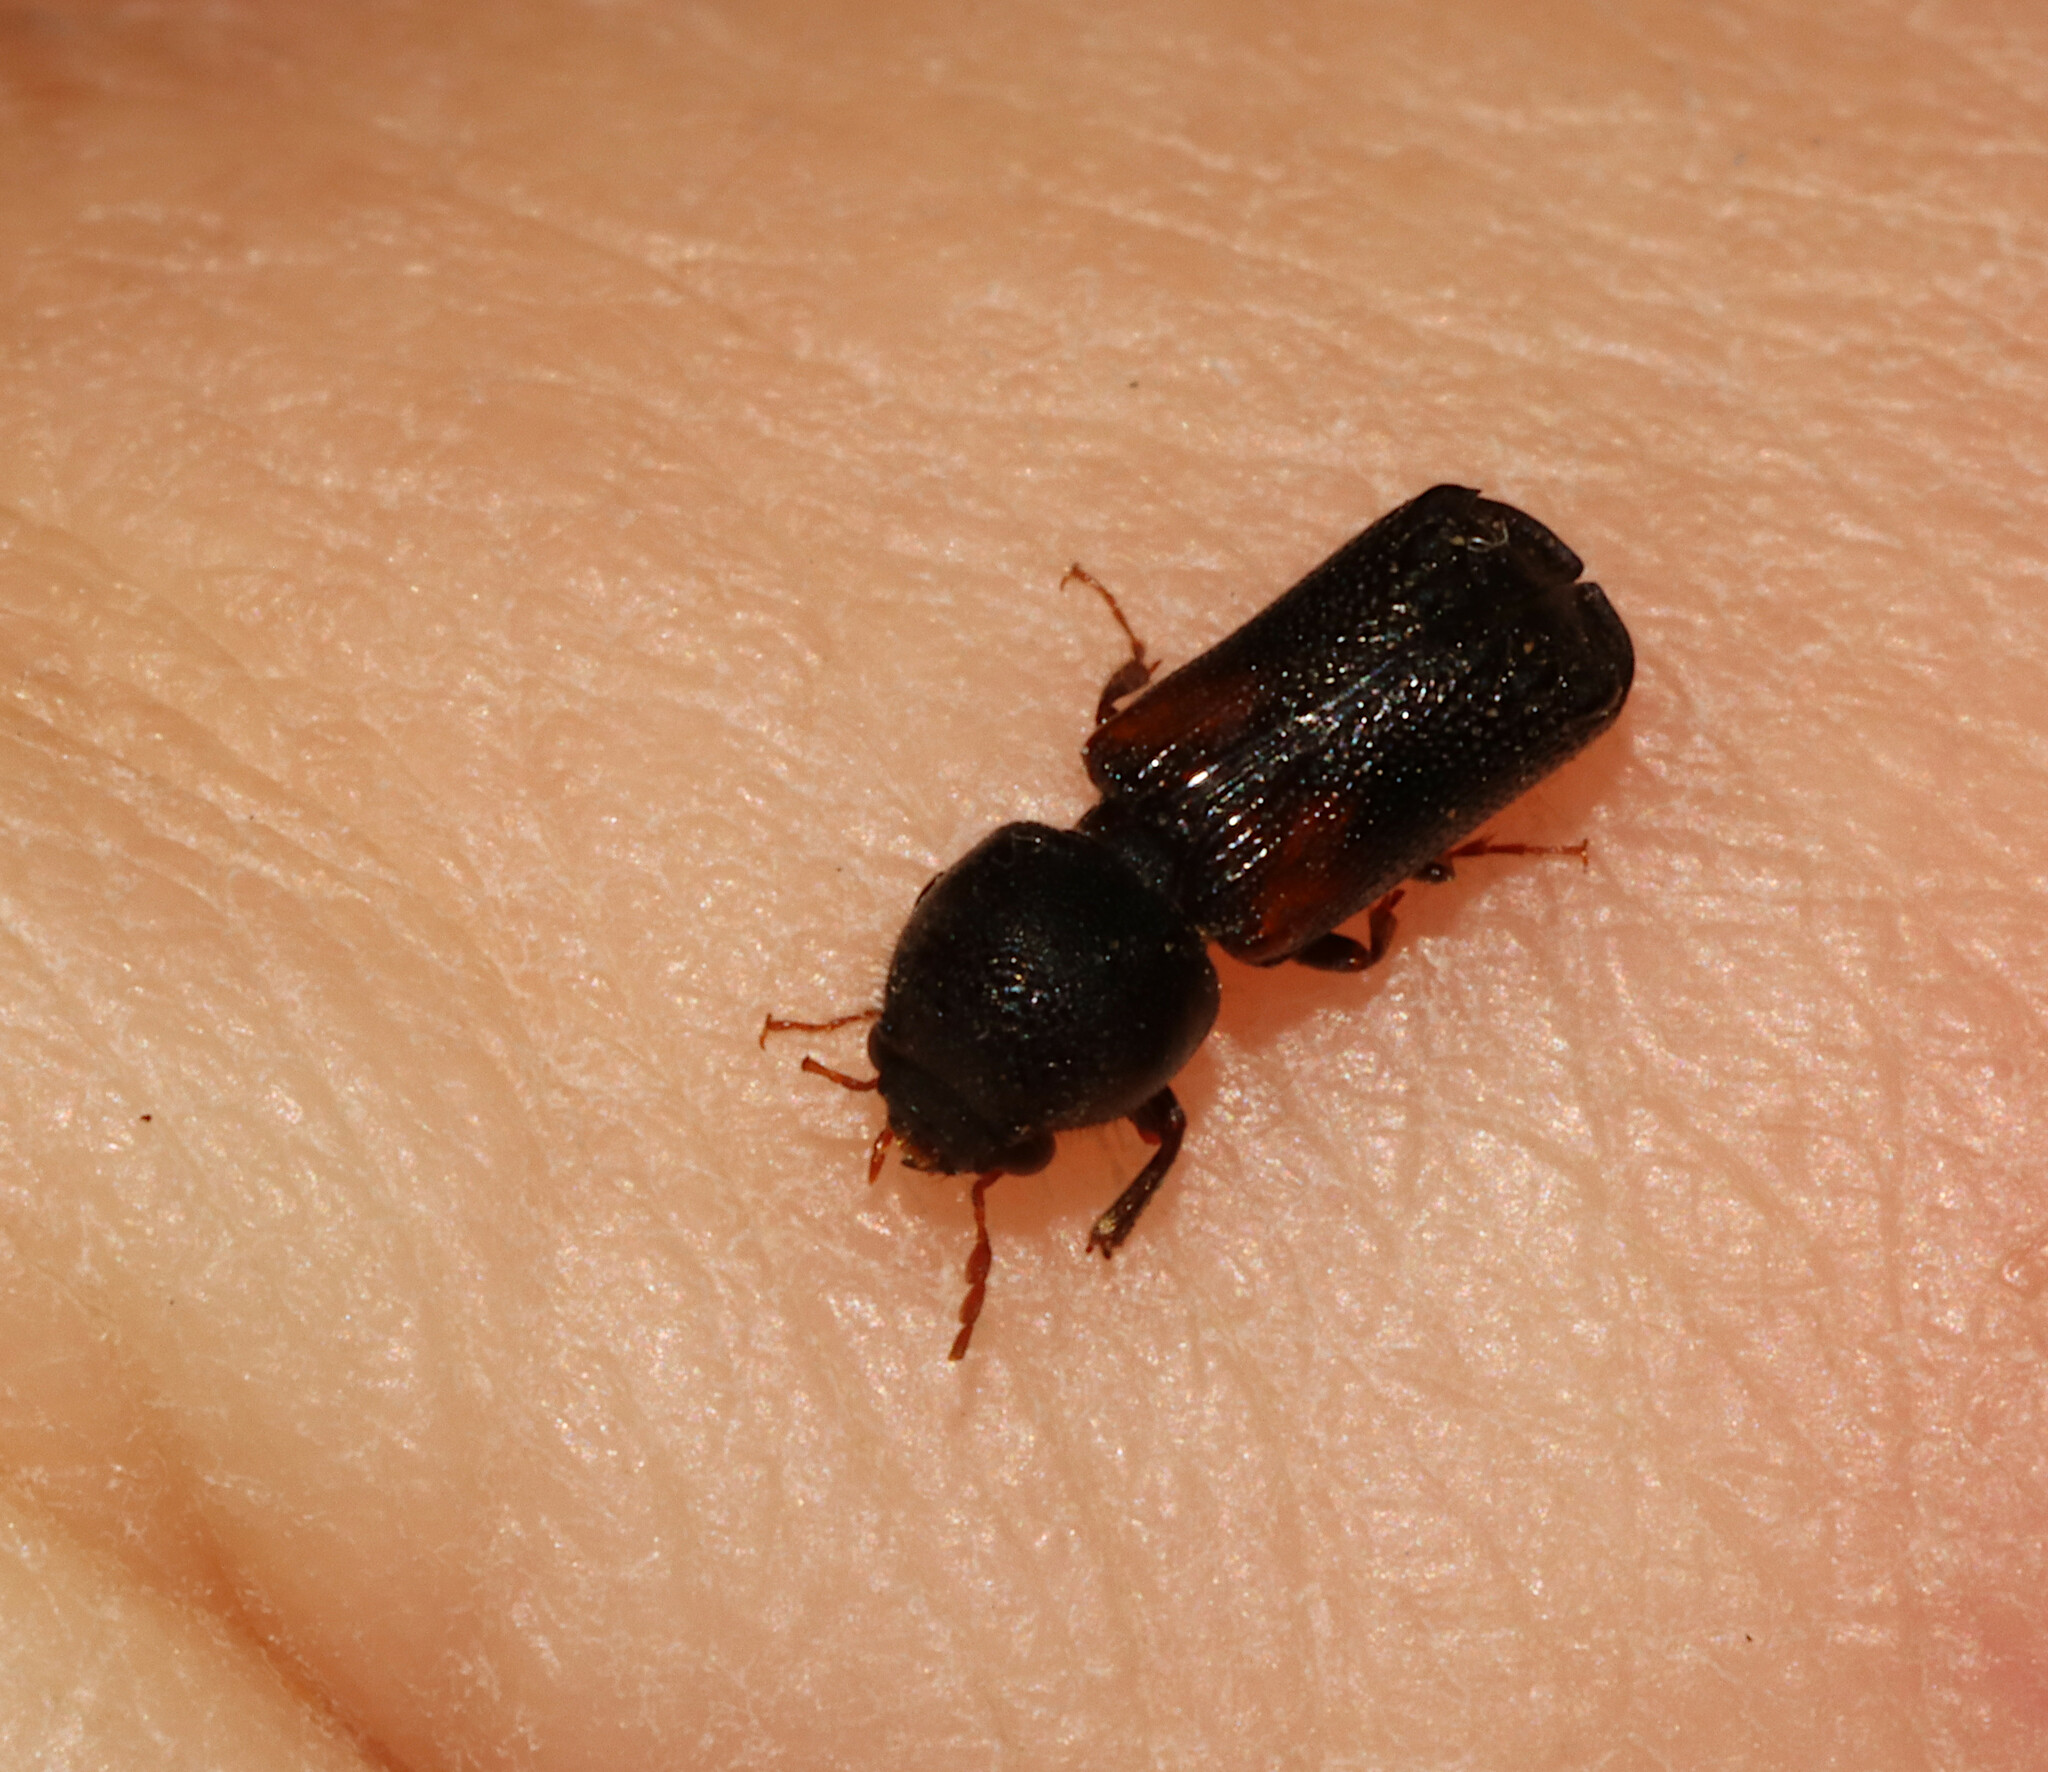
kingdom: Animalia
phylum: Arthropoda
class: Insecta
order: Coleoptera
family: Bostrichidae
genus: Xylobiops
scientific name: Xylobiops basilaris
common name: Red-shouldered bostrichid
